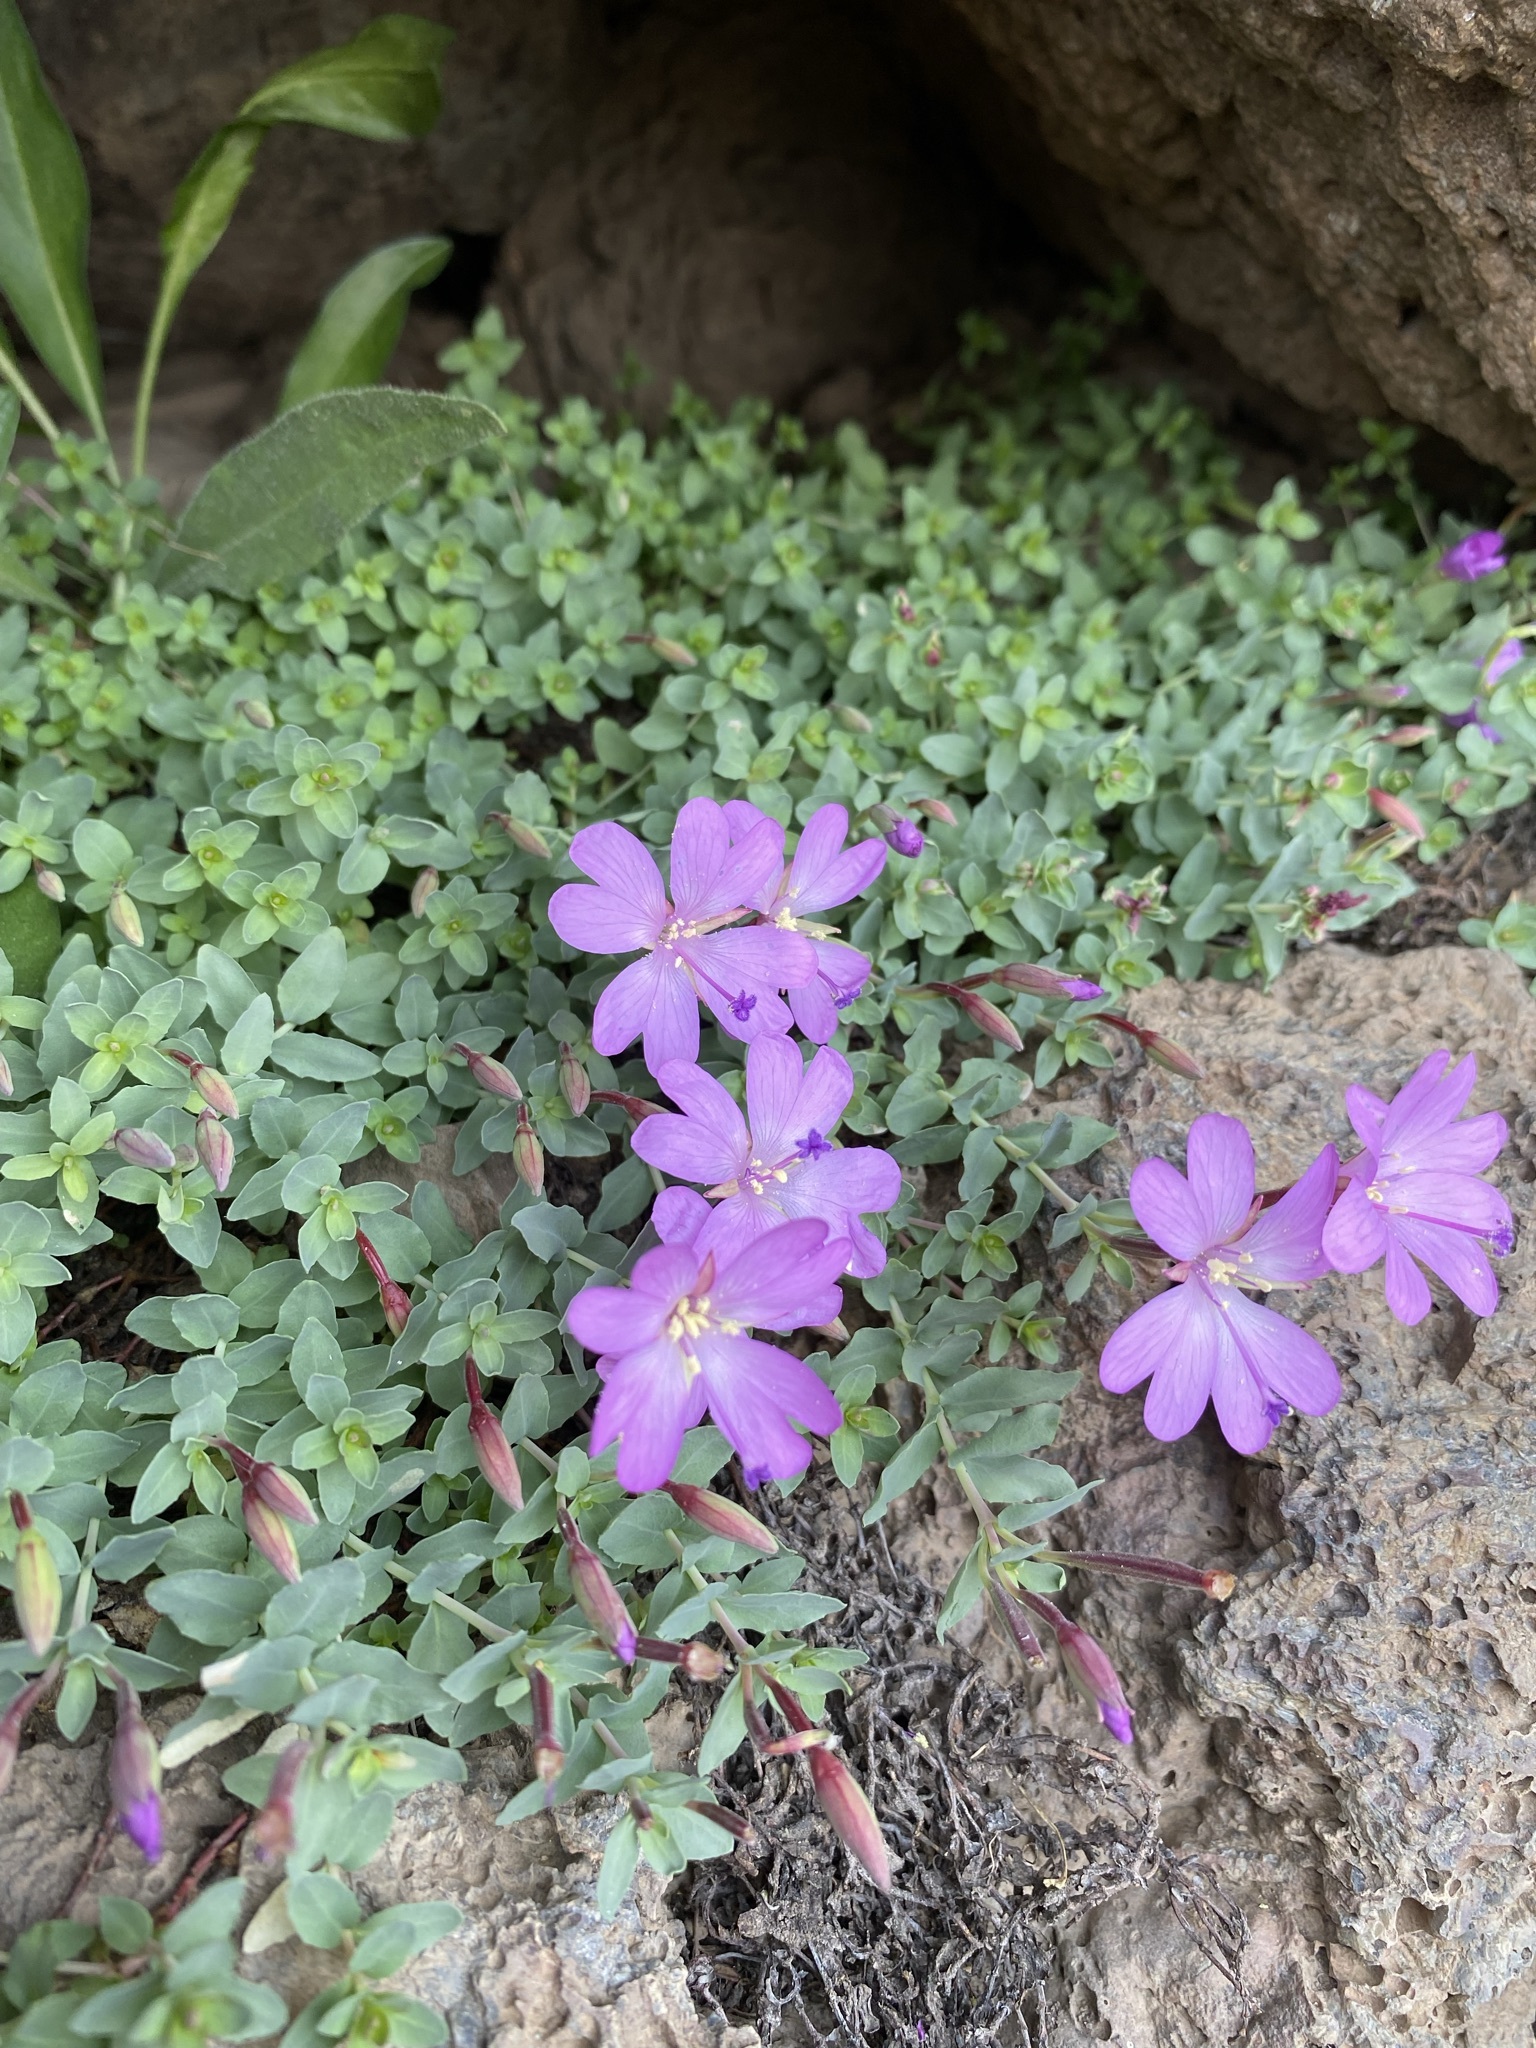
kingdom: Plantae
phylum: Tracheophyta
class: Magnoliopsida
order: Myrtales
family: Onagraceae
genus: Epilobium
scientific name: Epilobium obcordatum
